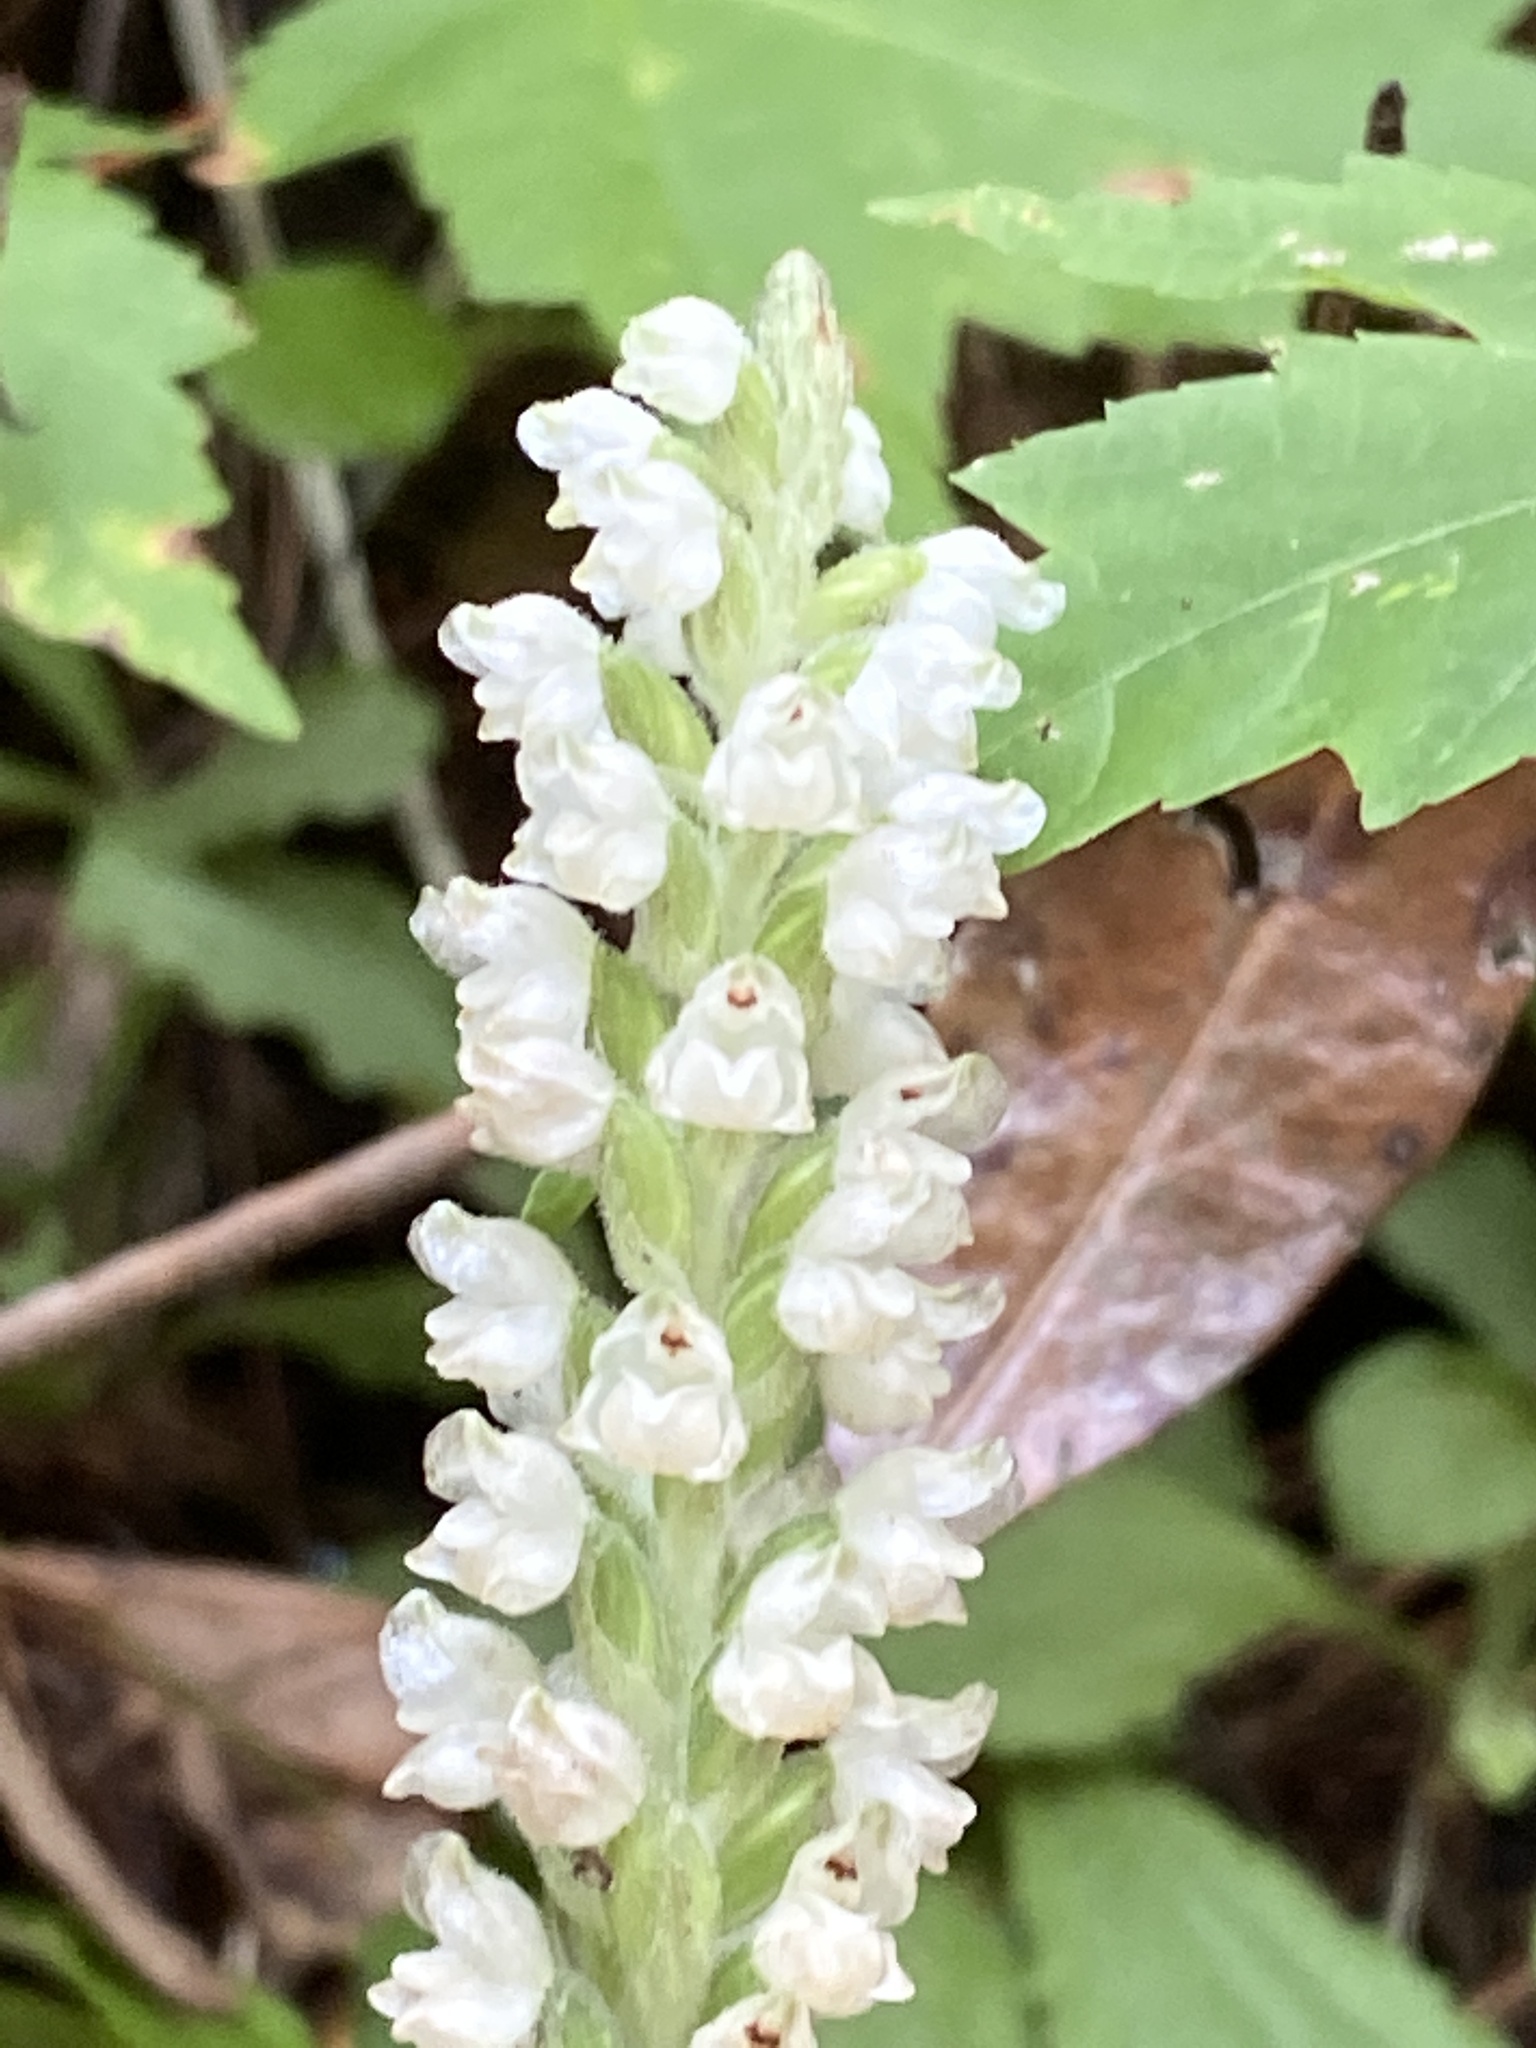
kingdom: Plantae
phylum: Tracheophyta
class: Liliopsida
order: Asparagales
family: Orchidaceae
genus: Goodyera
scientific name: Goodyera pubescens
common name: Downy rattlesnake-plantain
